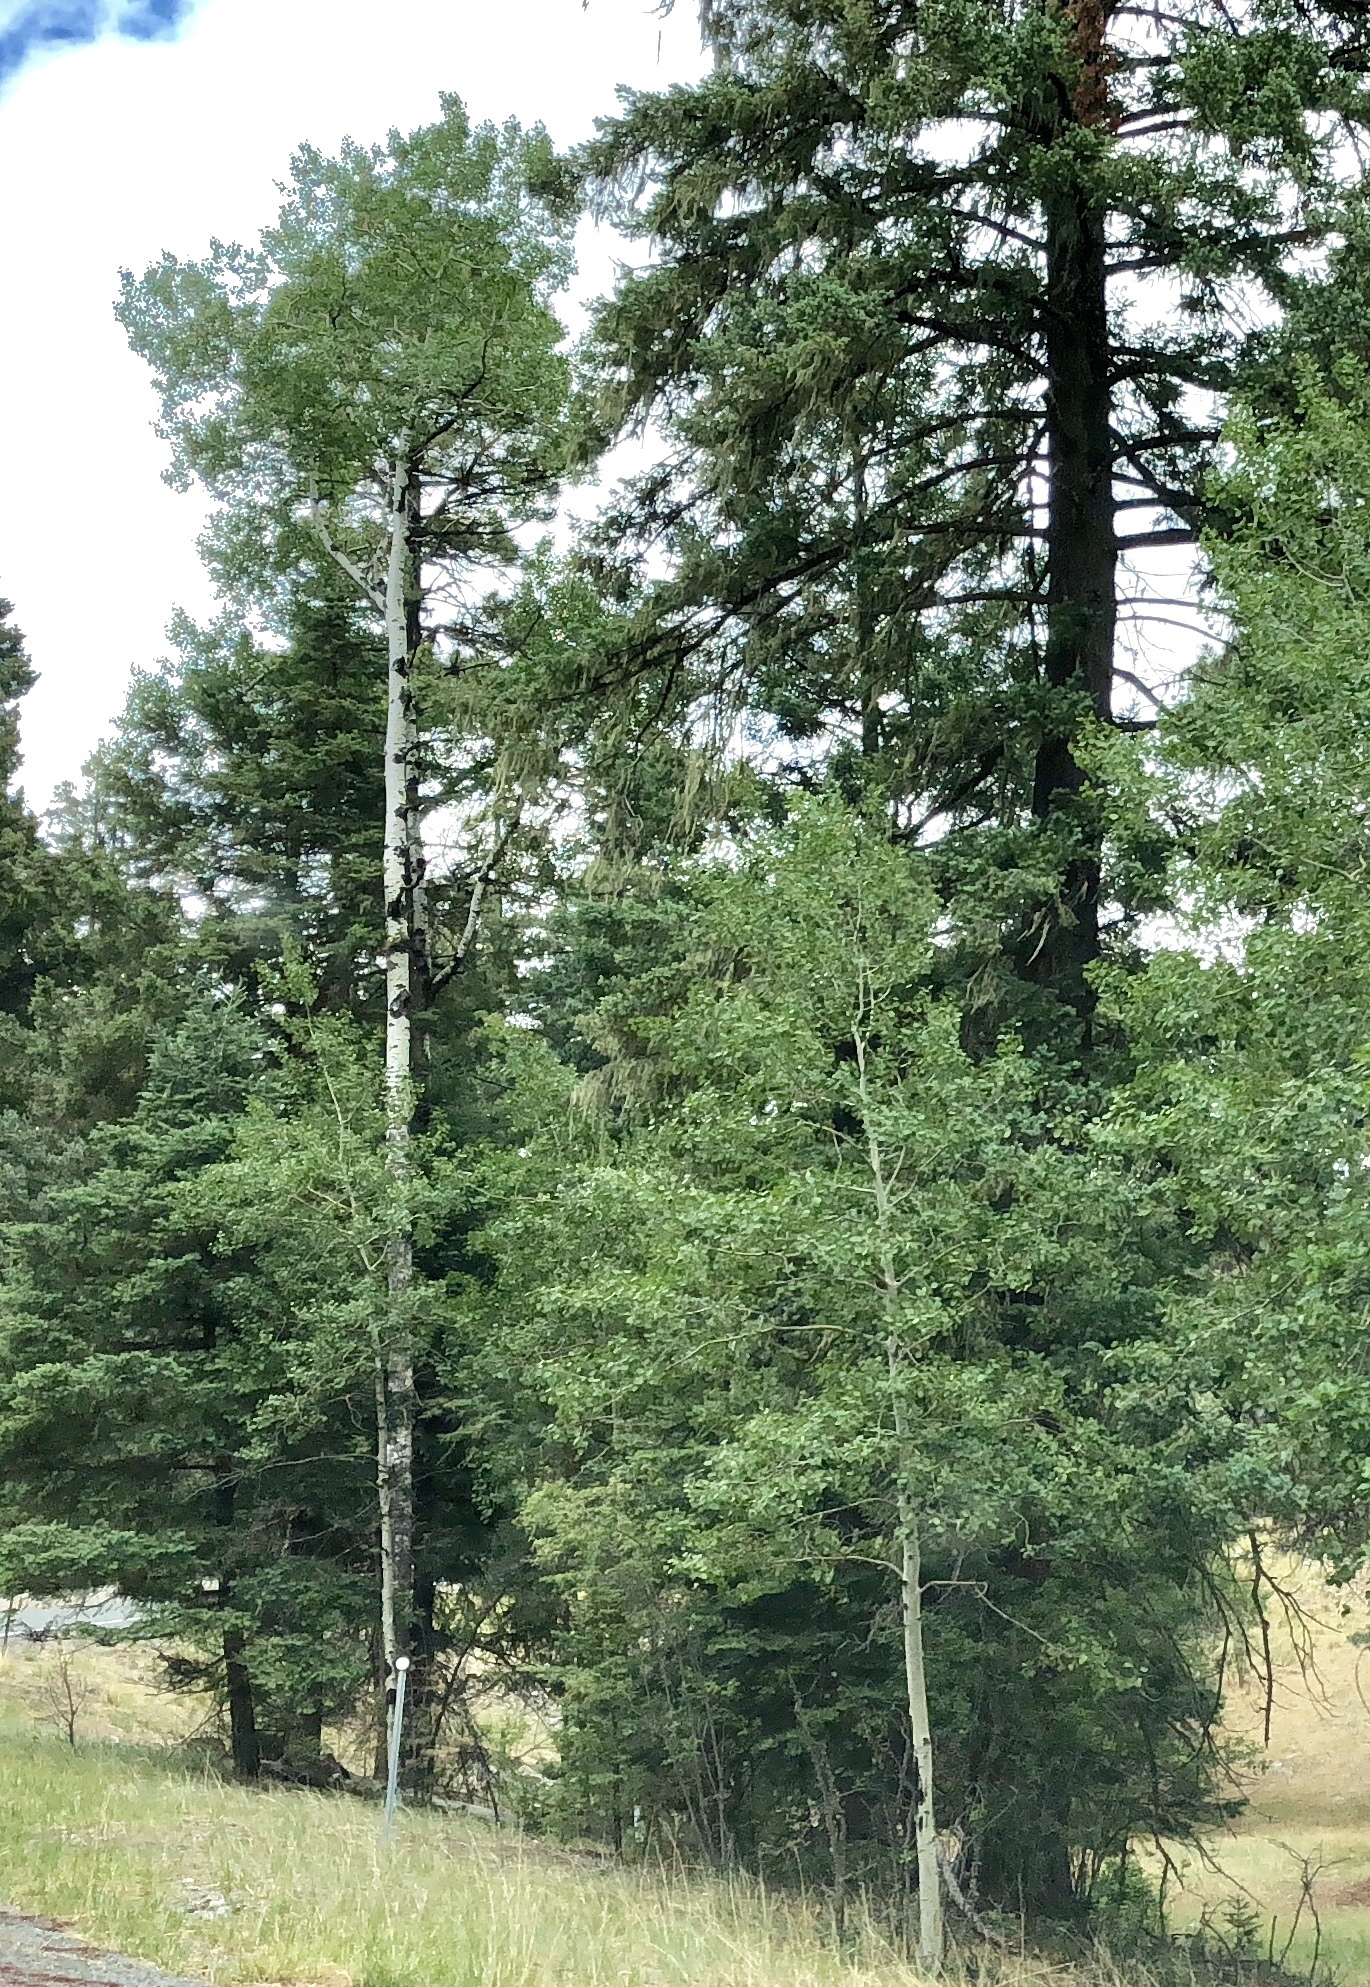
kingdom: Plantae
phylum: Tracheophyta
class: Magnoliopsida
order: Malpighiales
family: Salicaceae
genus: Populus
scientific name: Populus tremuloides
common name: Quaking aspen
